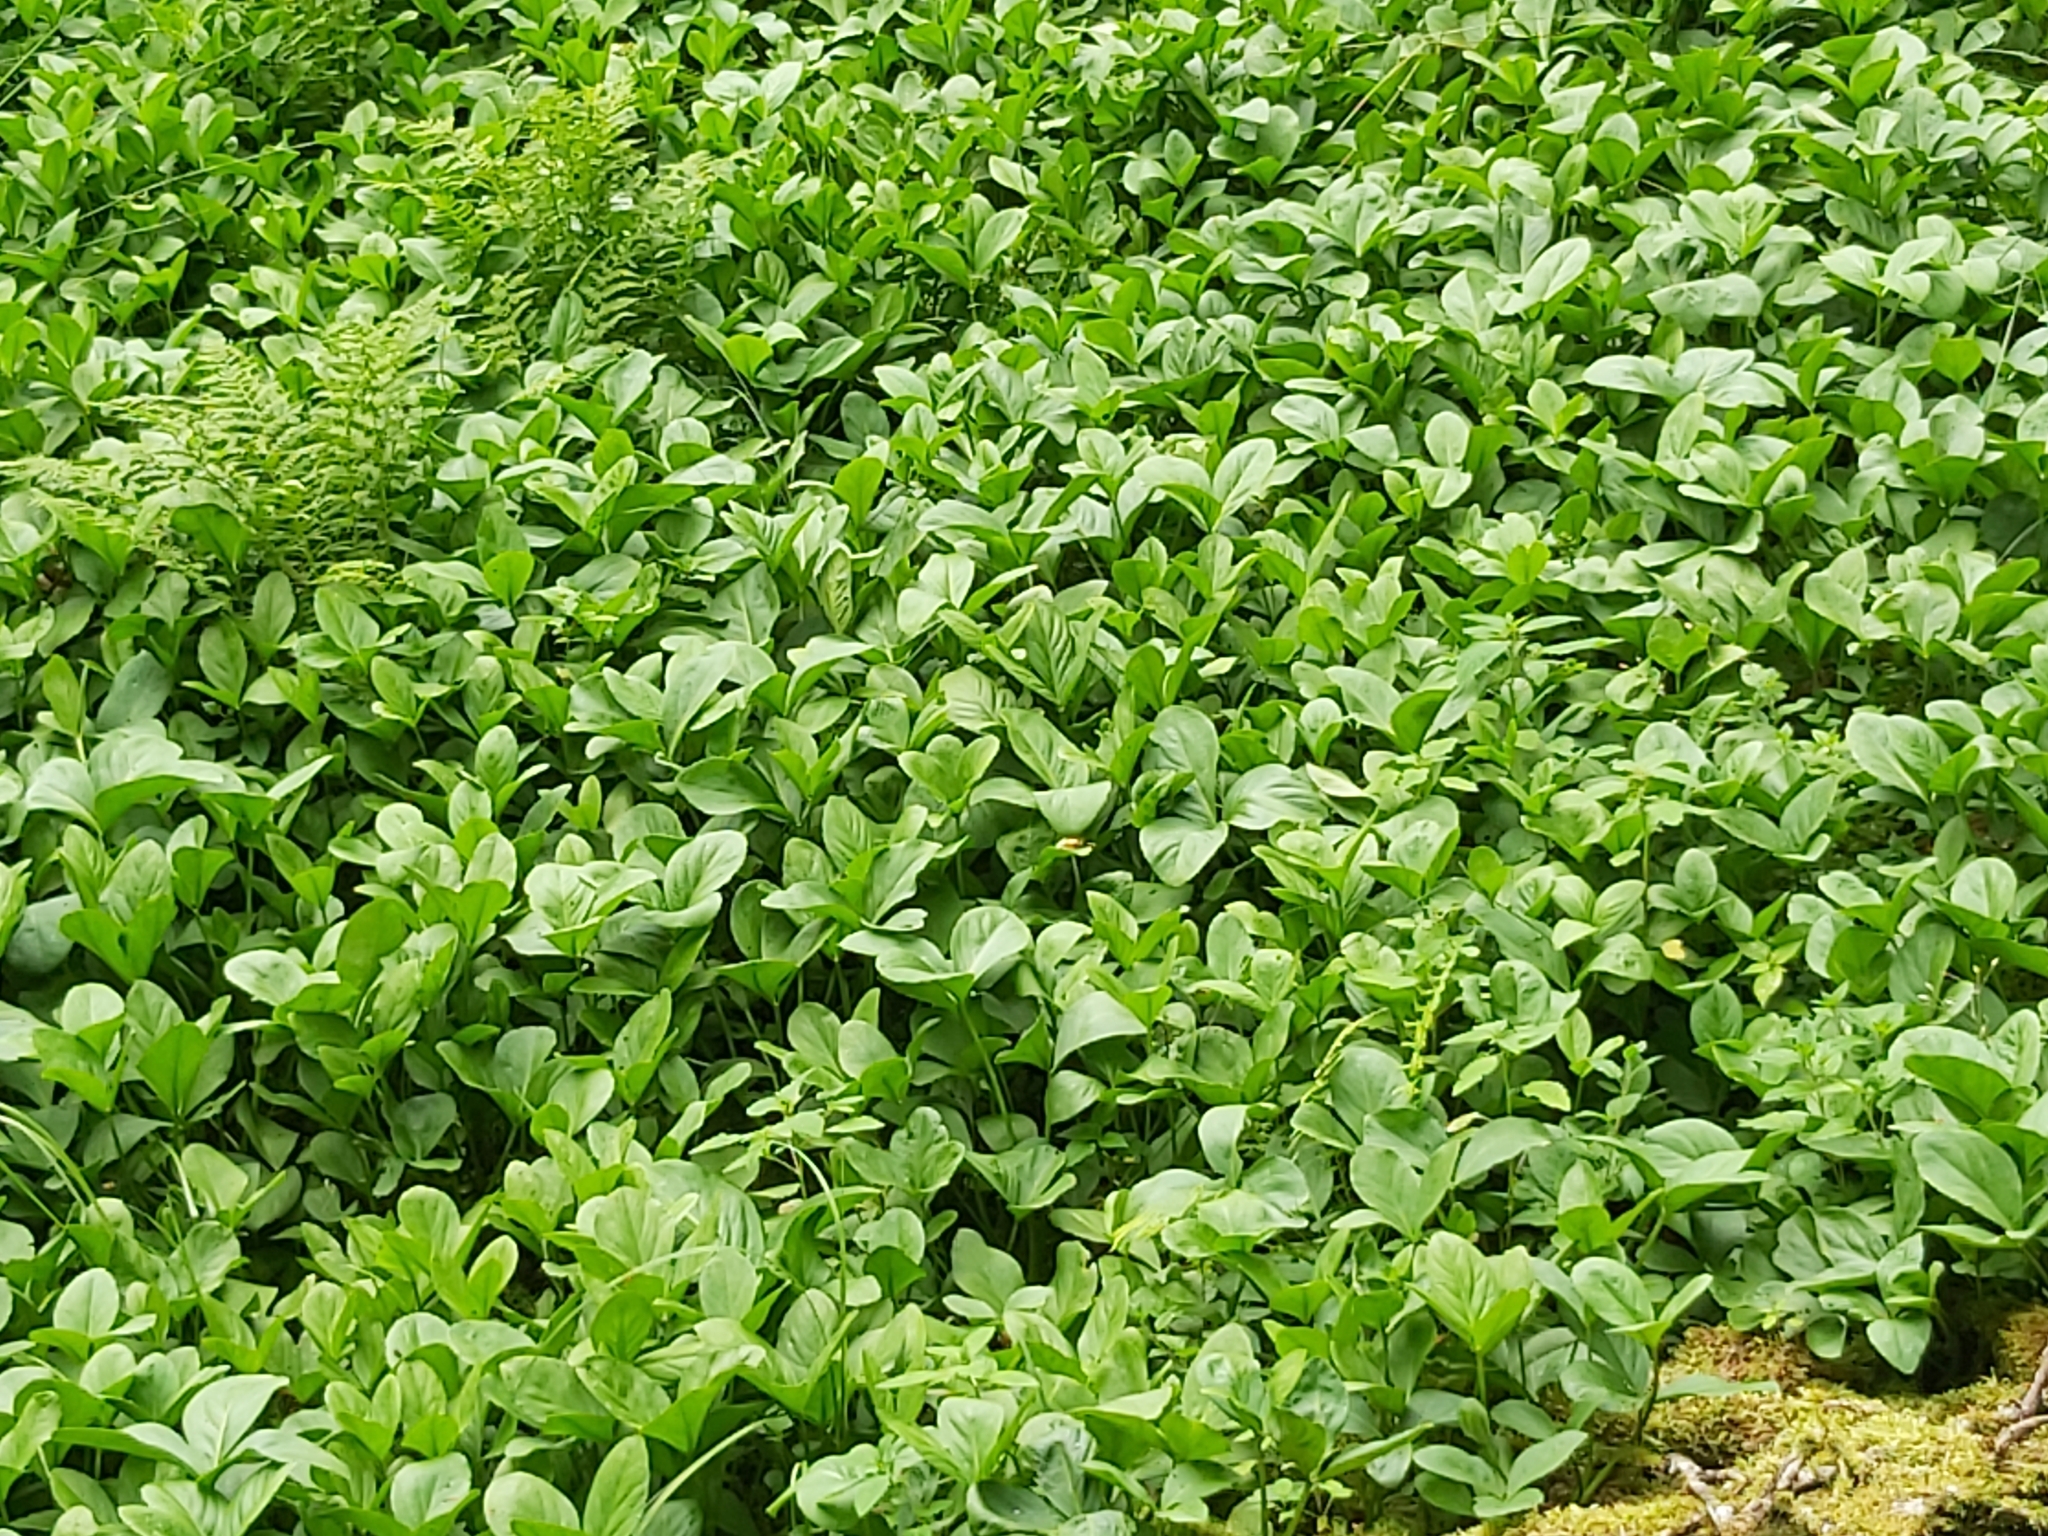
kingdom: Plantae
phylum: Tracheophyta
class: Magnoliopsida
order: Asterales
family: Menyanthaceae
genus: Menyanthes
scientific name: Menyanthes trifoliata
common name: Bogbean
